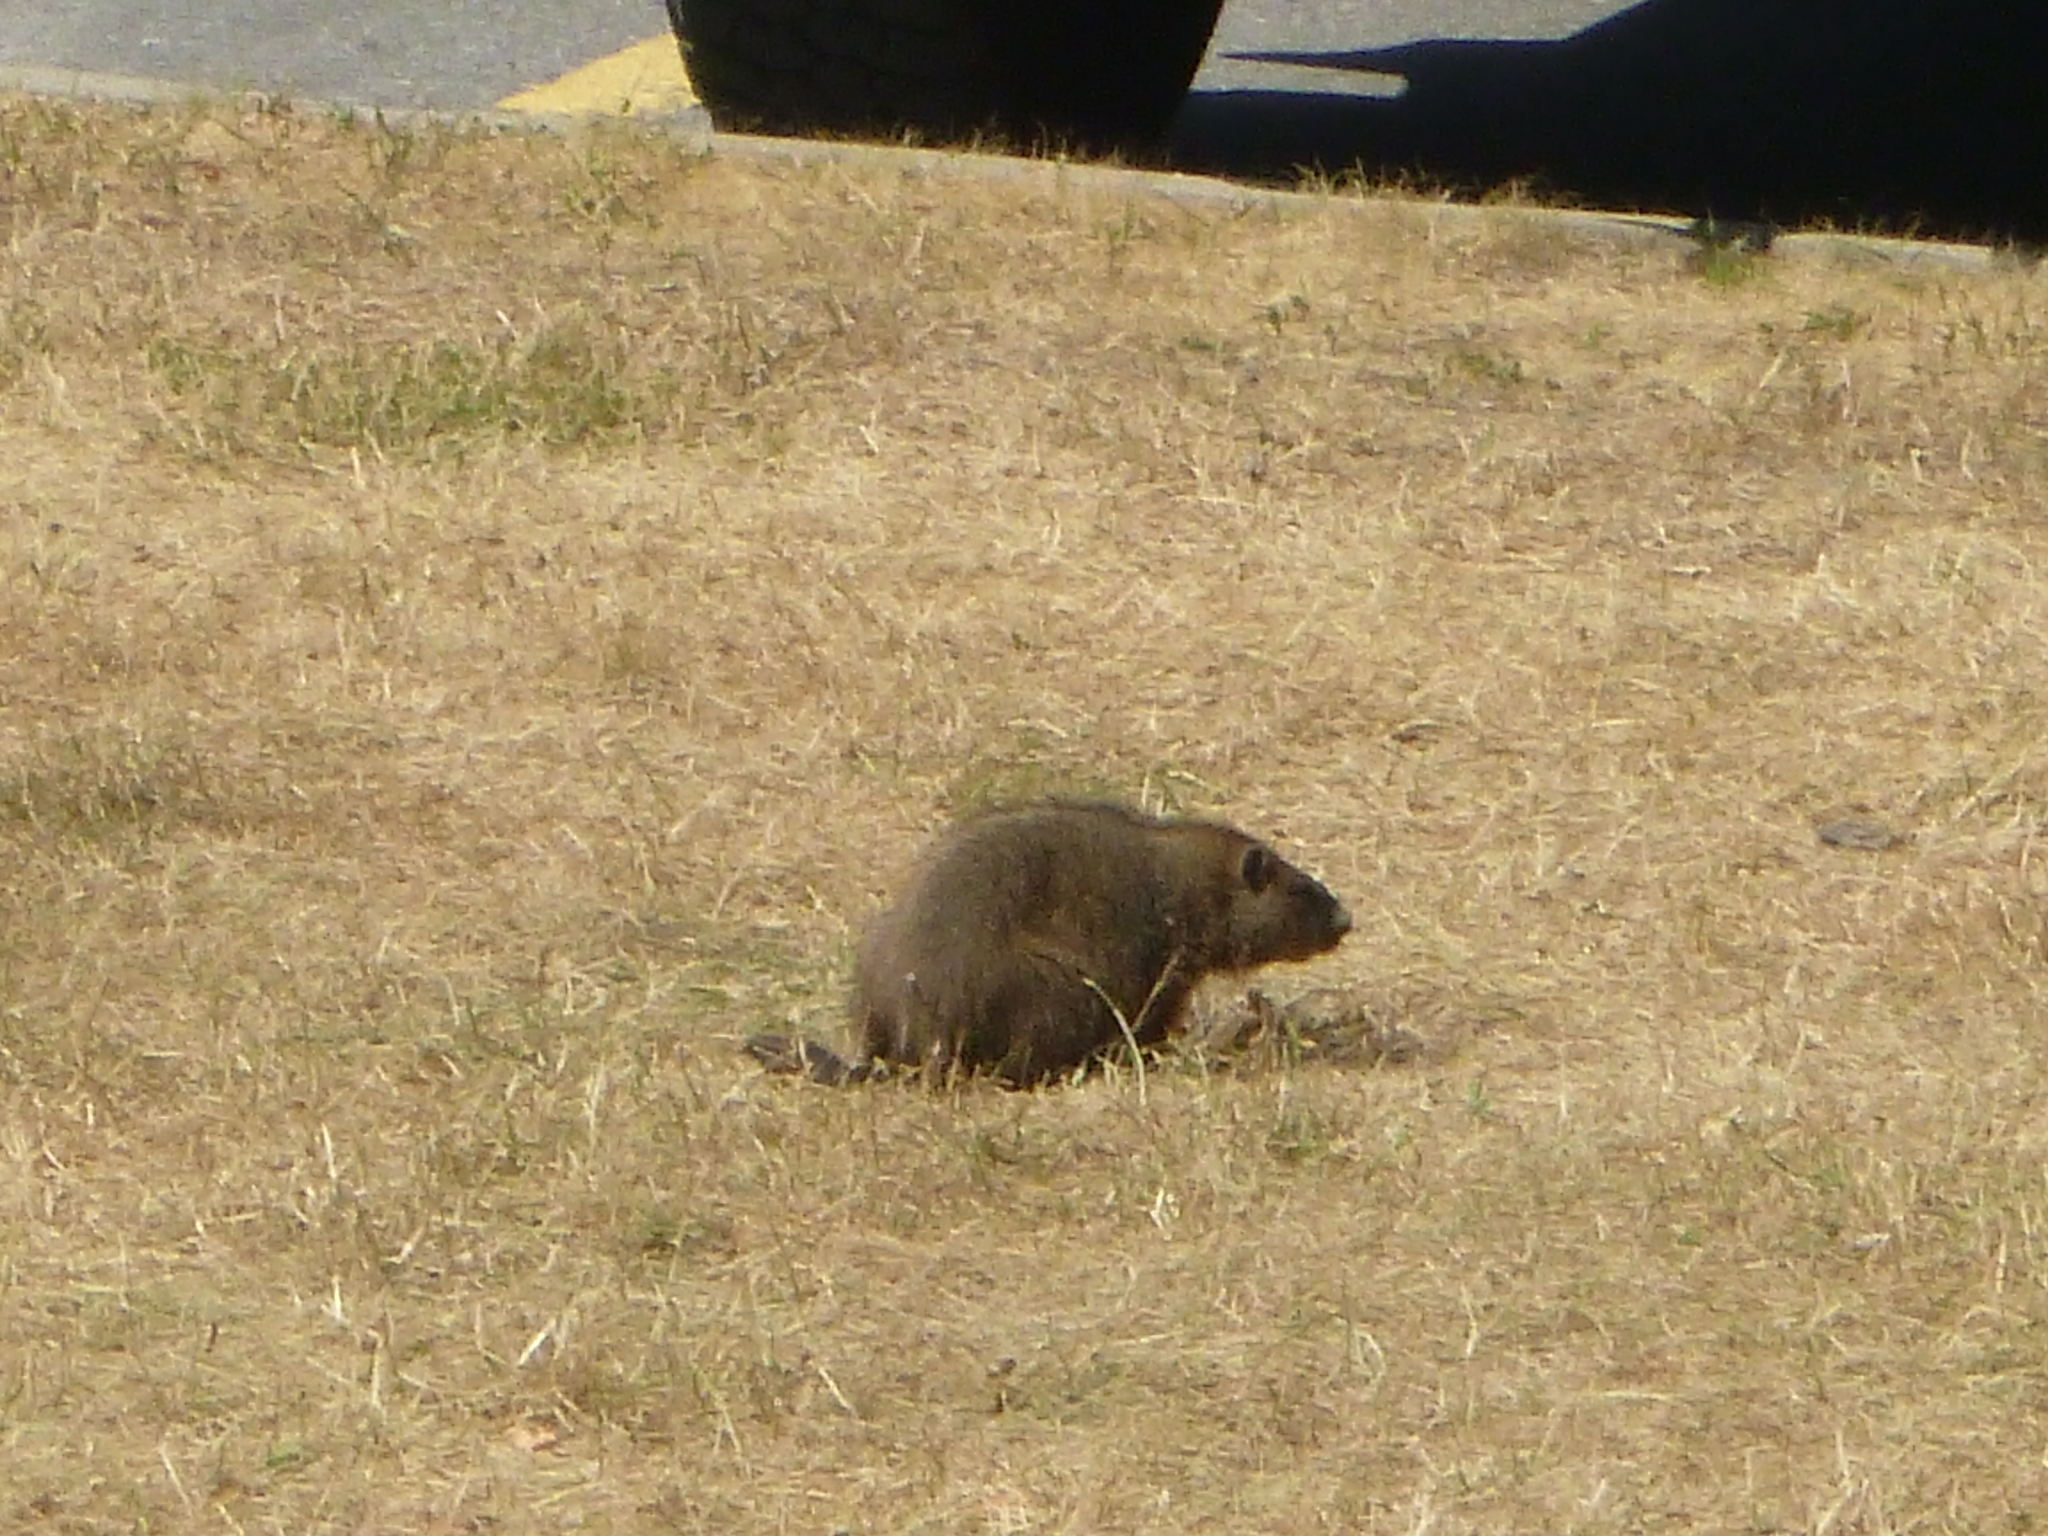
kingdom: Animalia
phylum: Chordata
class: Mammalia
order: Rodentia
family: Sciuridae
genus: Marmota
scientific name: Marmota monax
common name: Groundhog
